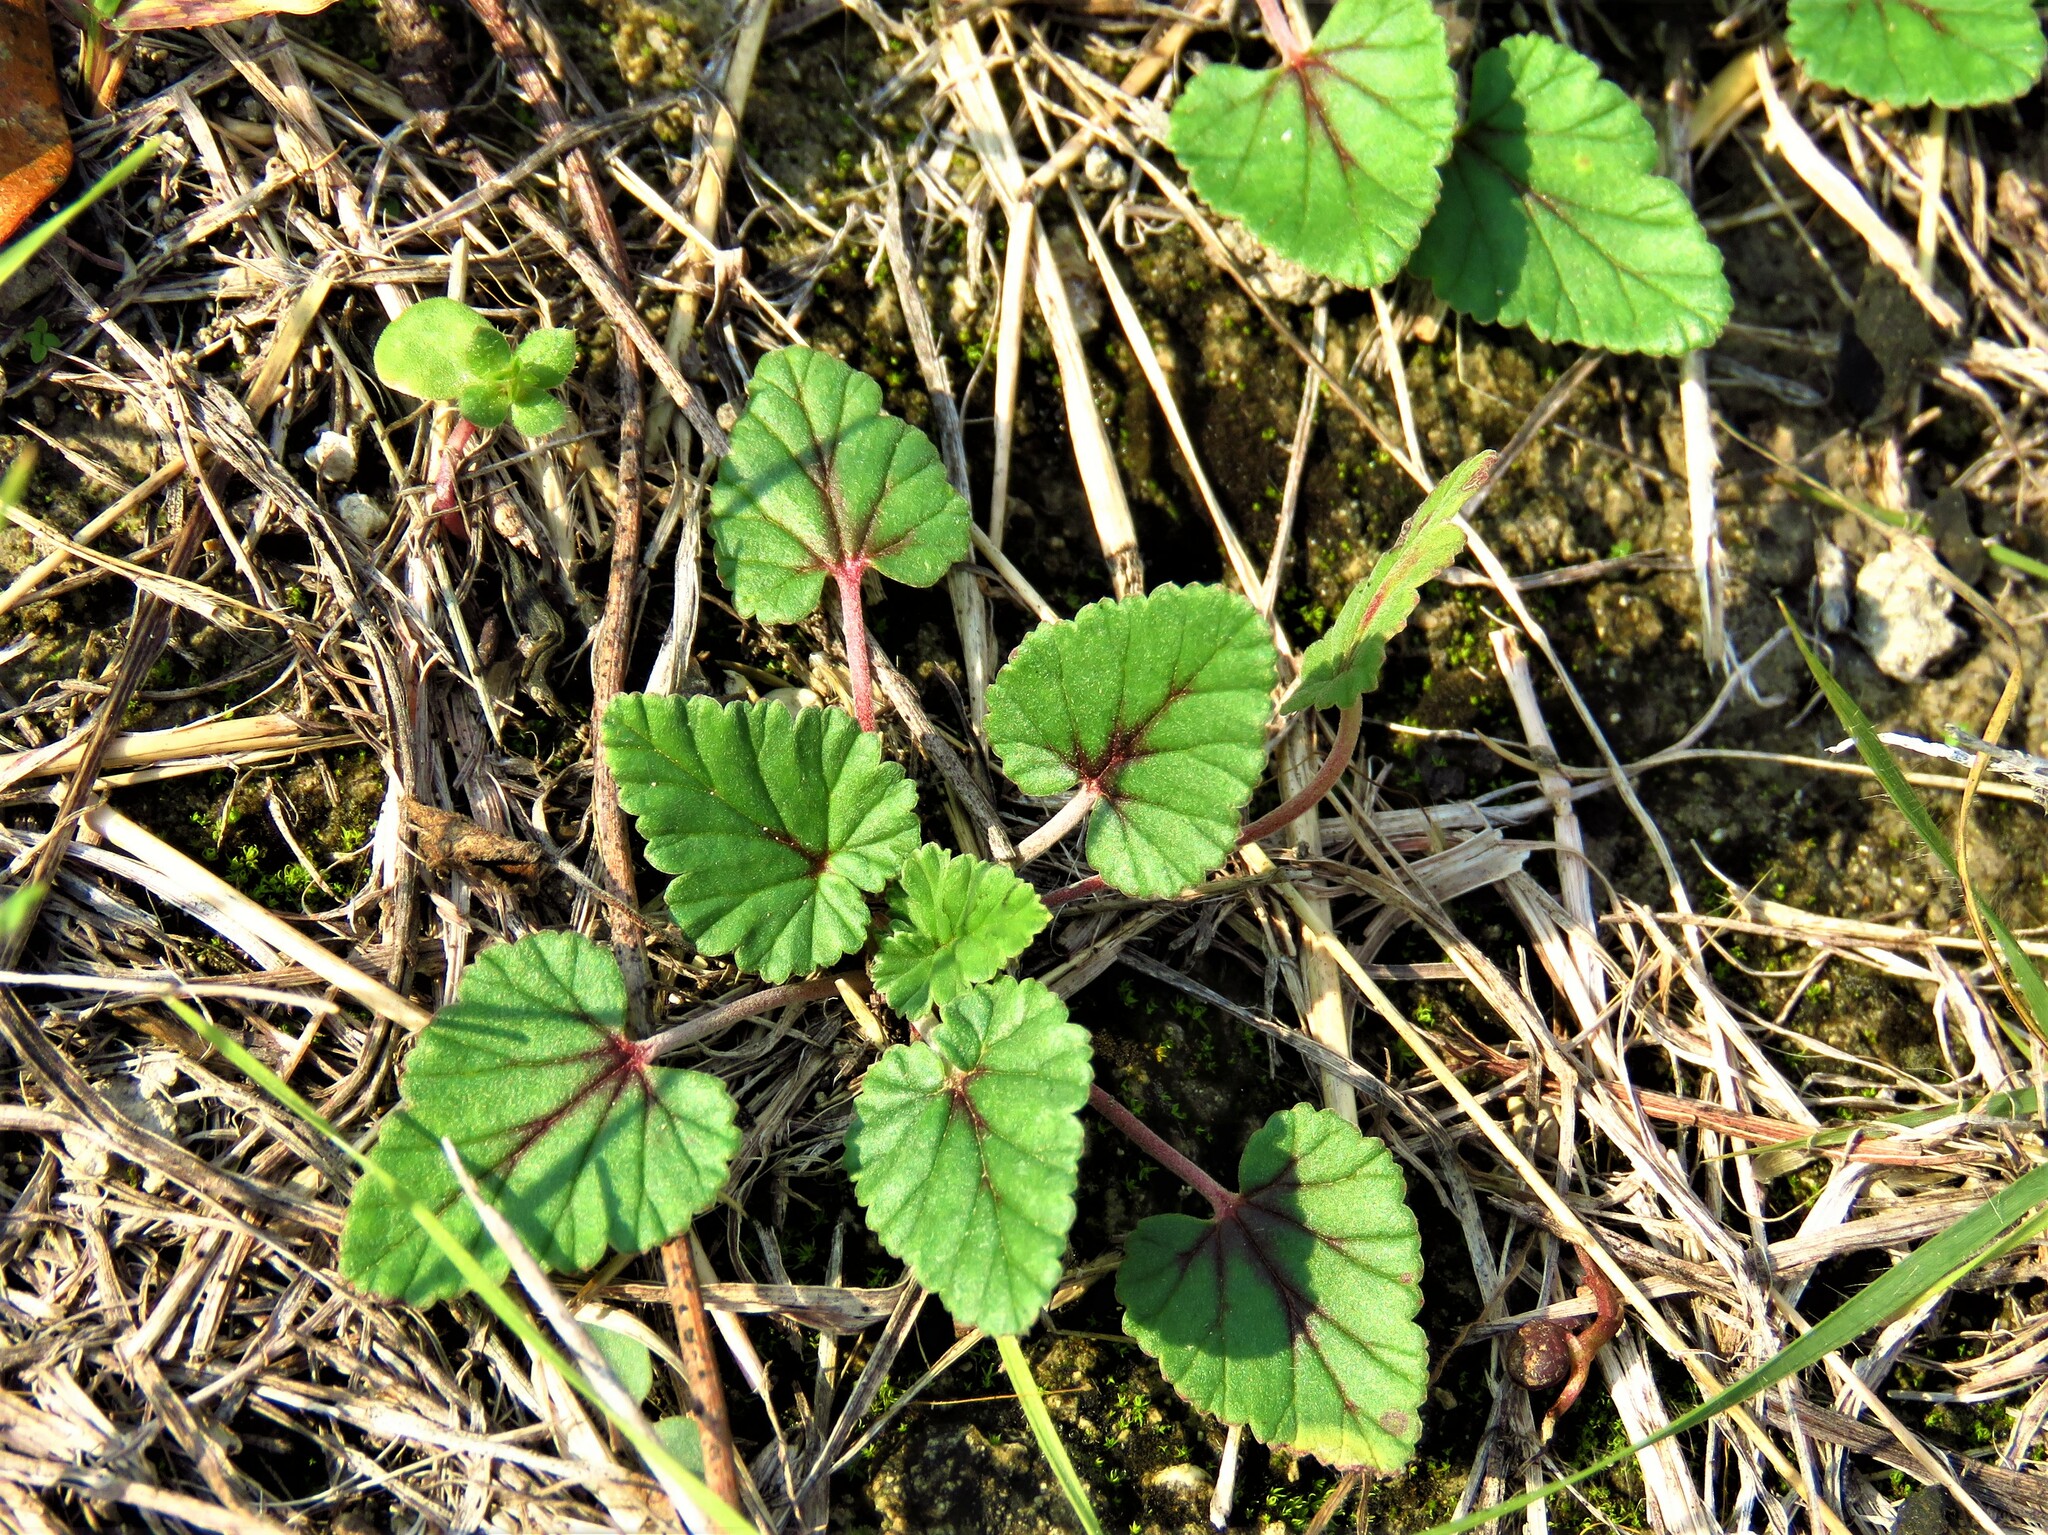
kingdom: Plantae
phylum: Tracheophyta
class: Magnoliopsida
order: Geraniales
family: Geraniaceae
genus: Erodium
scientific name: Erodium texanum
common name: Texas stork's-bill
